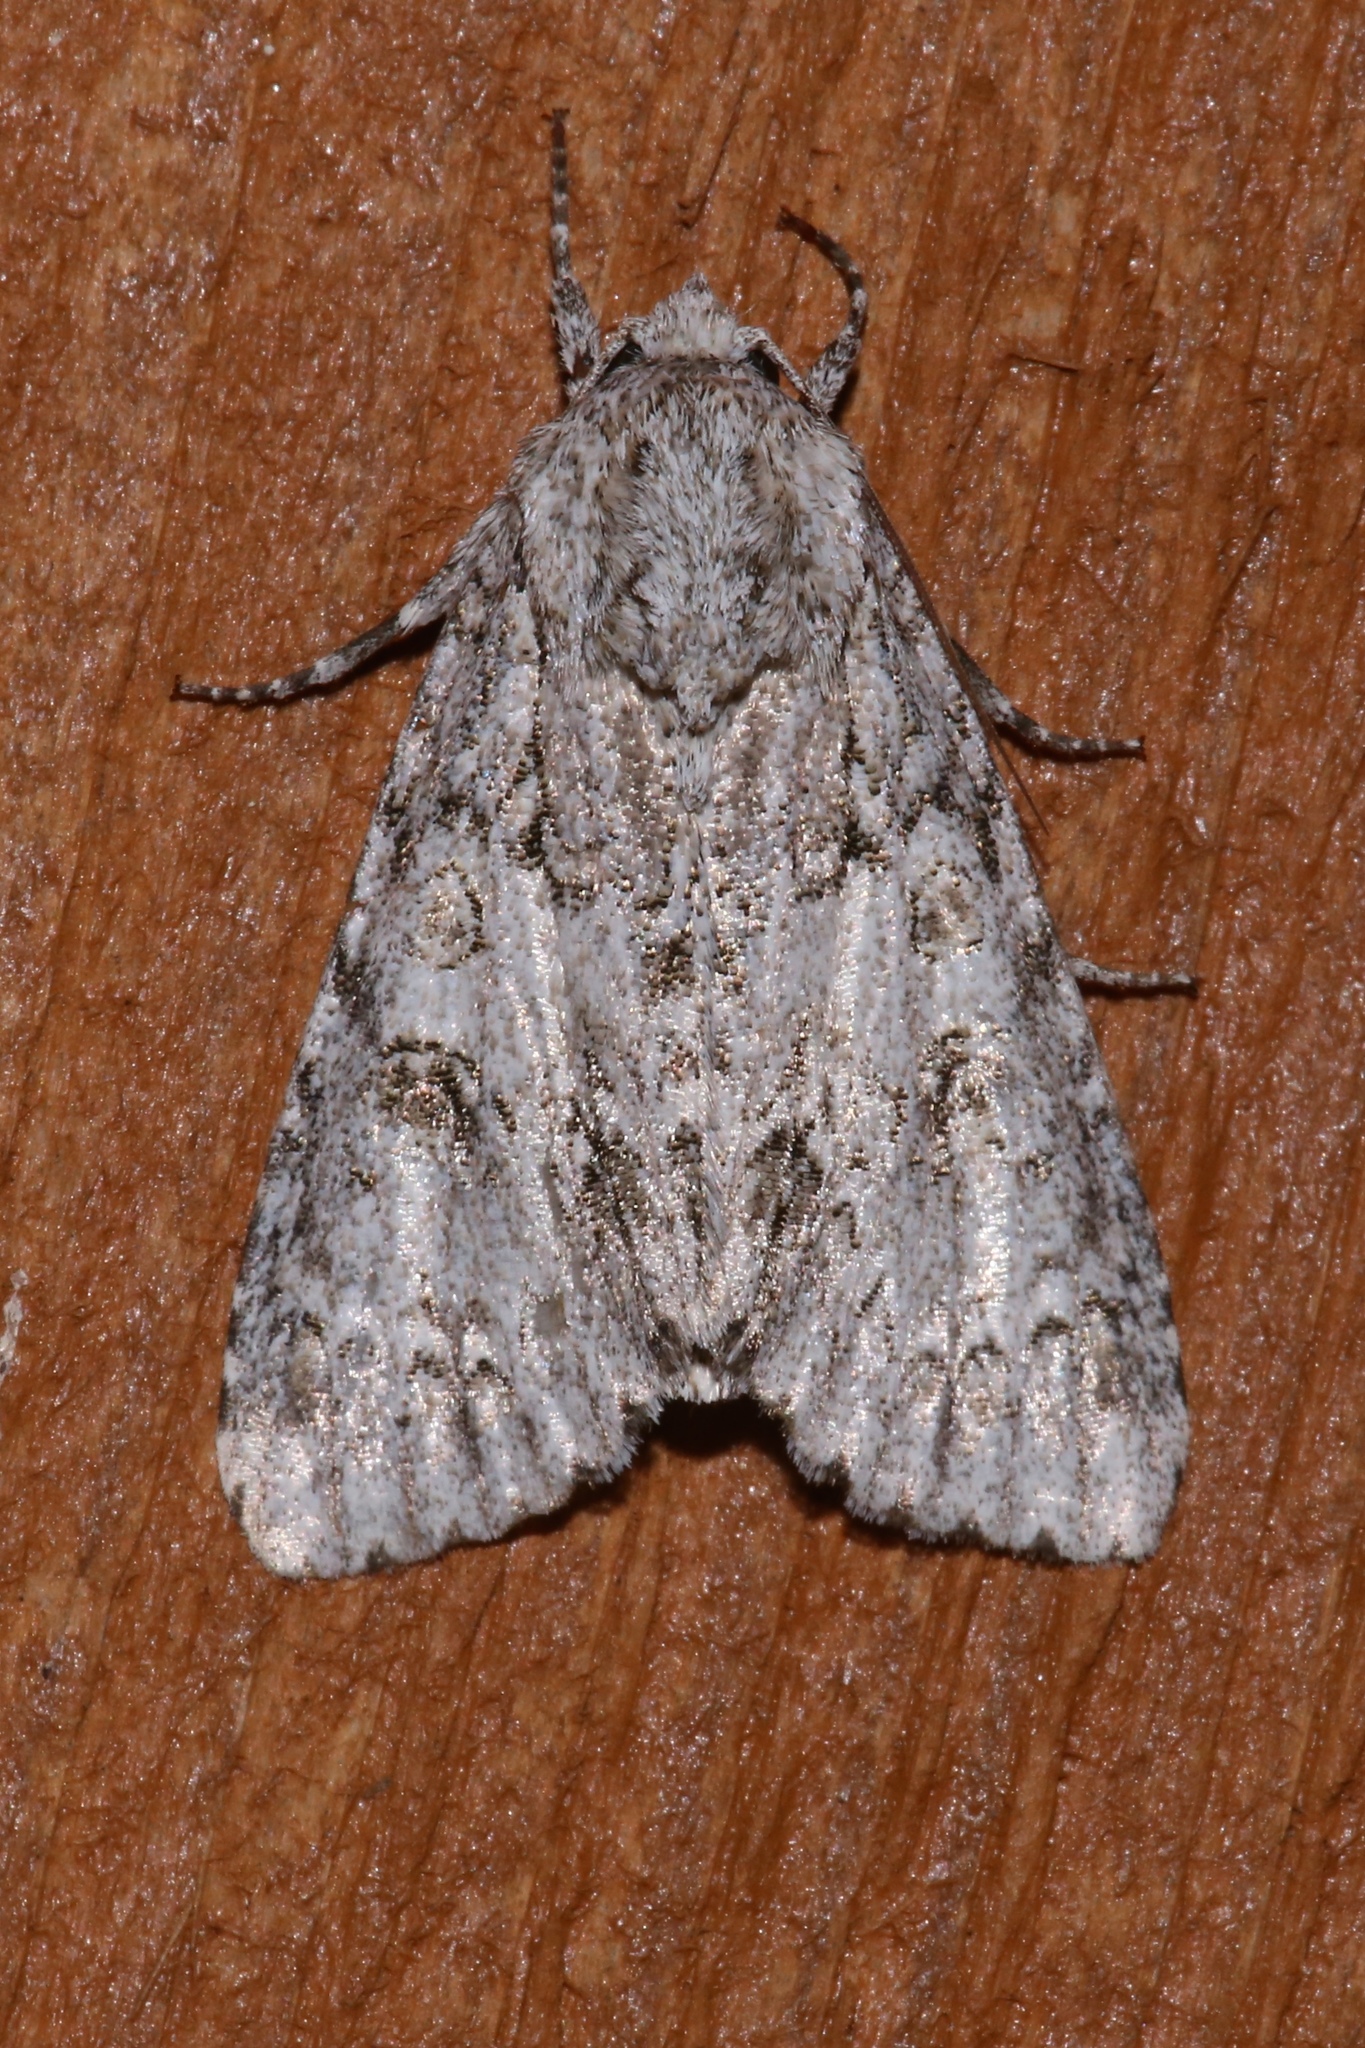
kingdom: Animalia
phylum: Arthropoda
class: Insecta
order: Lepidoptera
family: Noctuidae
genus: Acronicta
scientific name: Acronicta rubricoma
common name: Hackberry dagger
